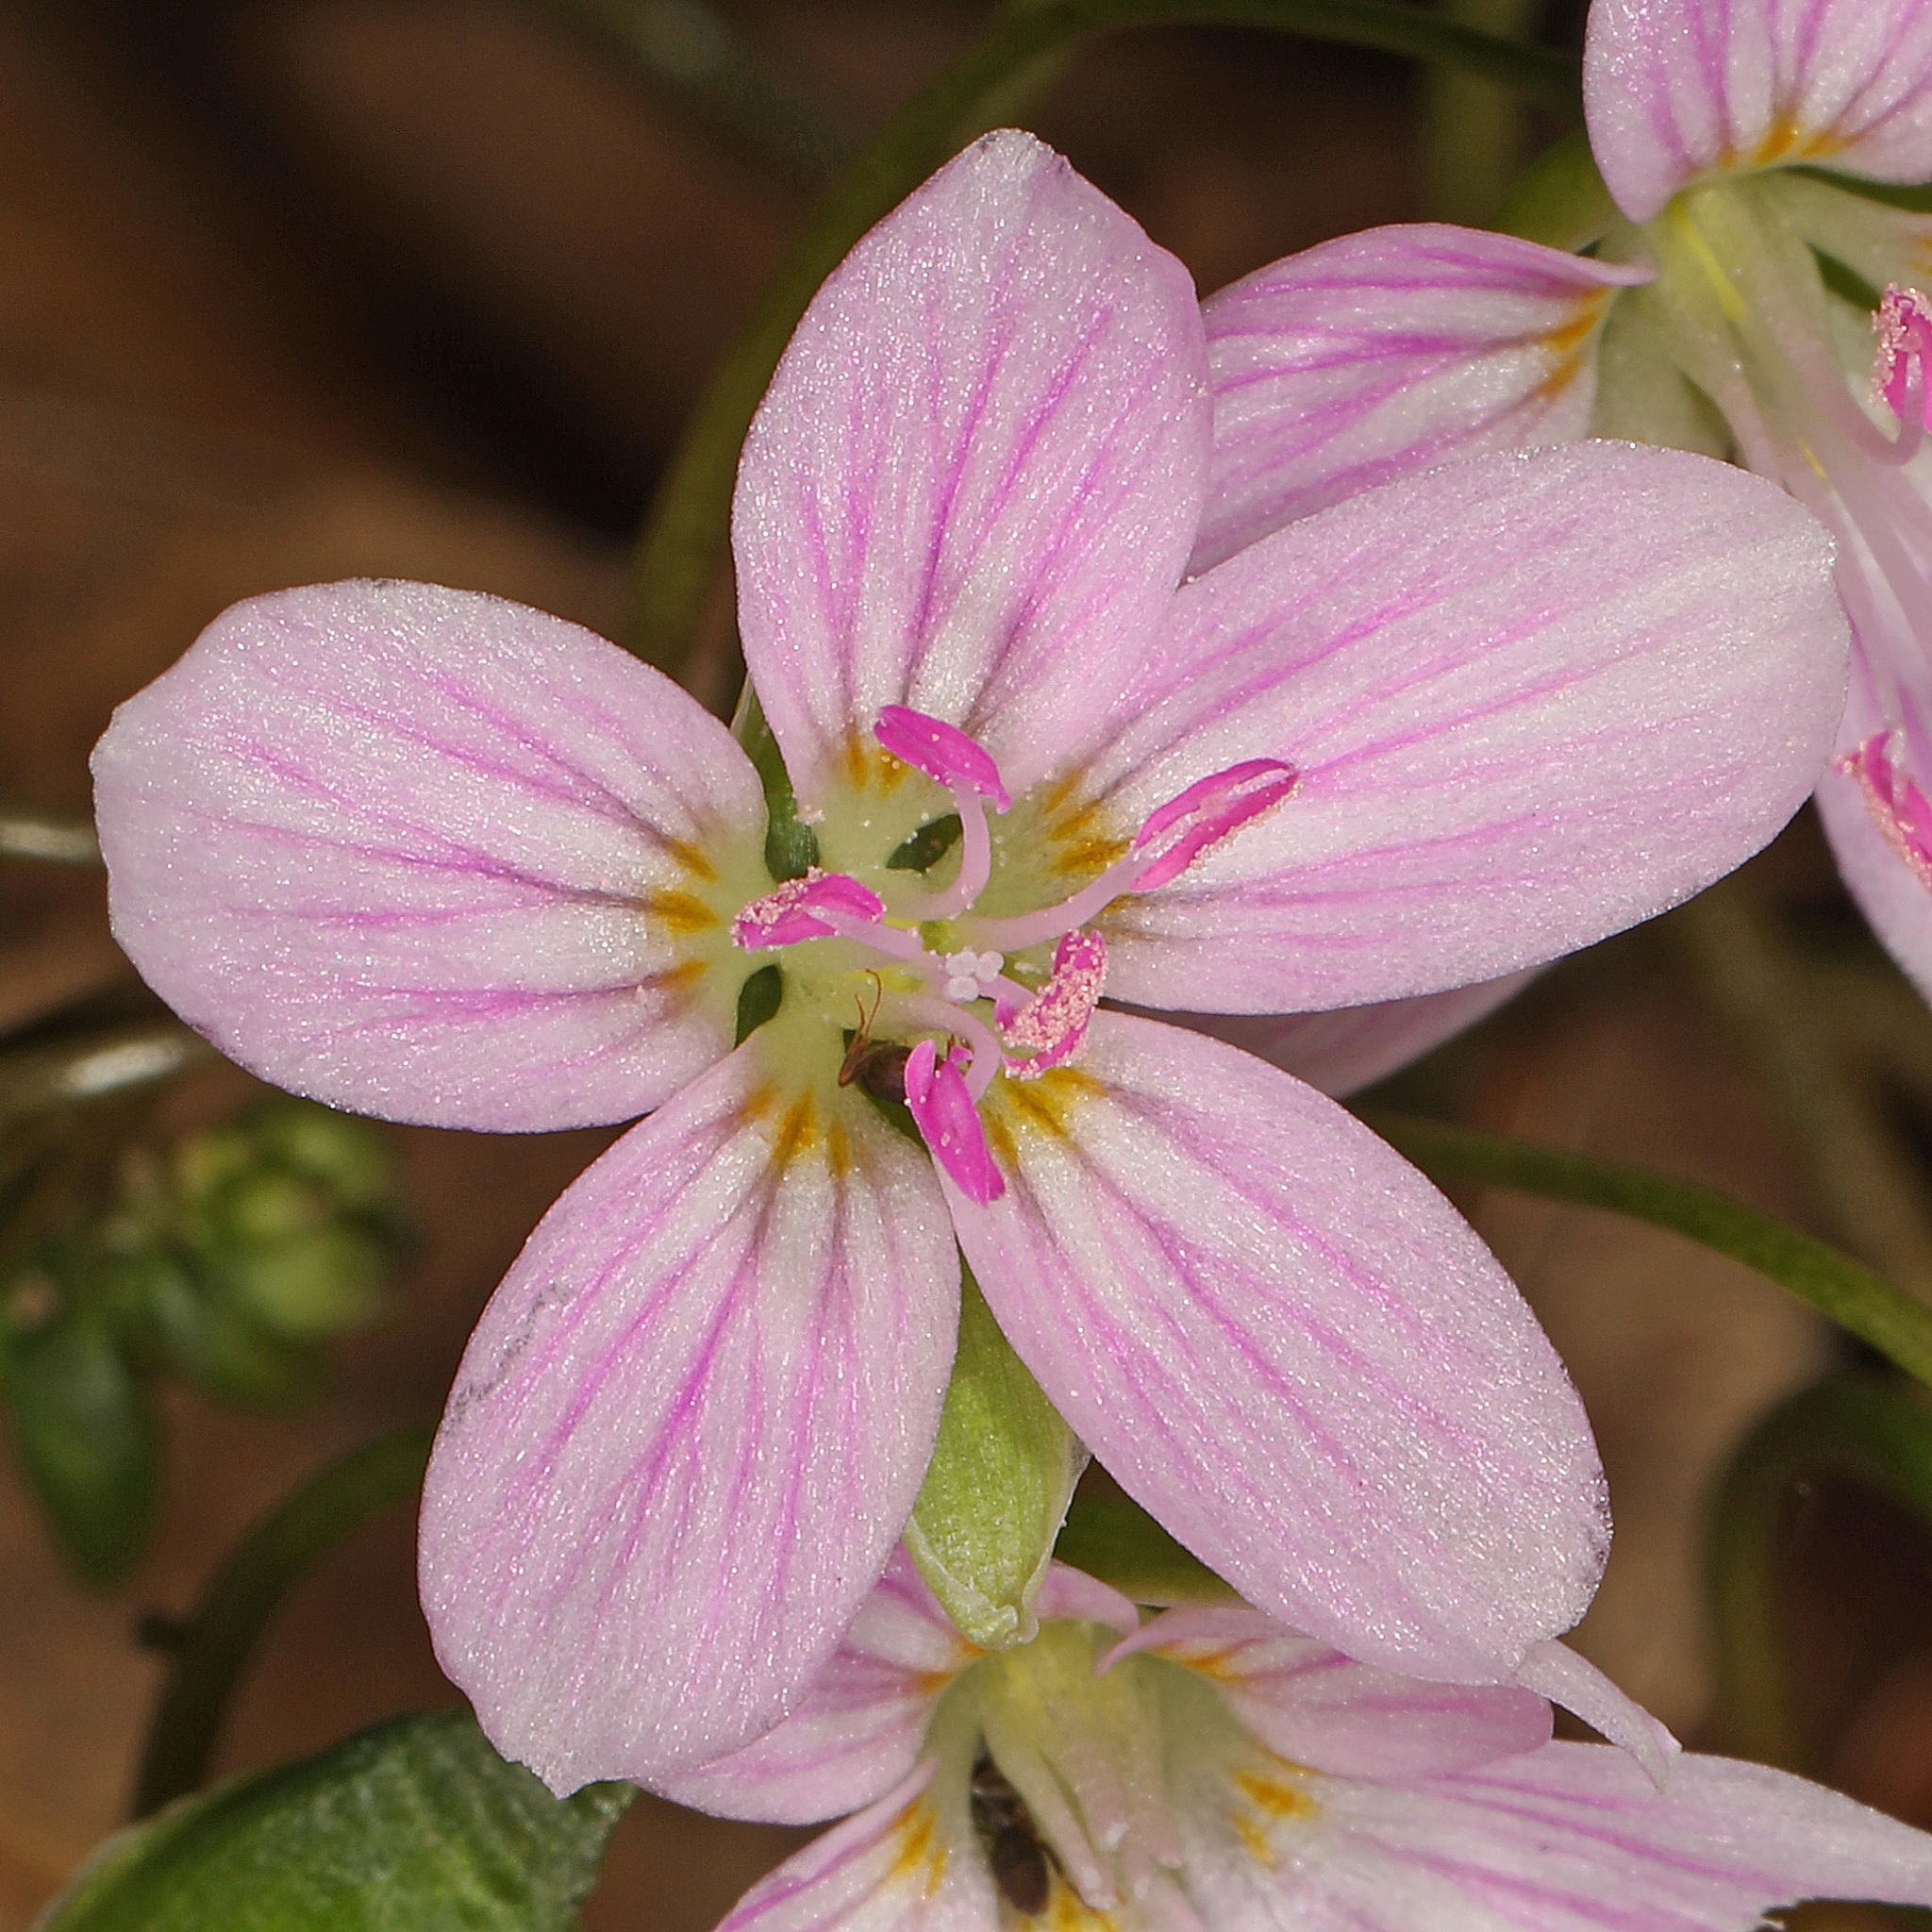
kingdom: Plantae
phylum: Tracheophyta
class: Magnoliopsida
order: Caryophyllales
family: Montiaceae
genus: Claytonia
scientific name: Claytonia virginica
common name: Virginia springbeauty
